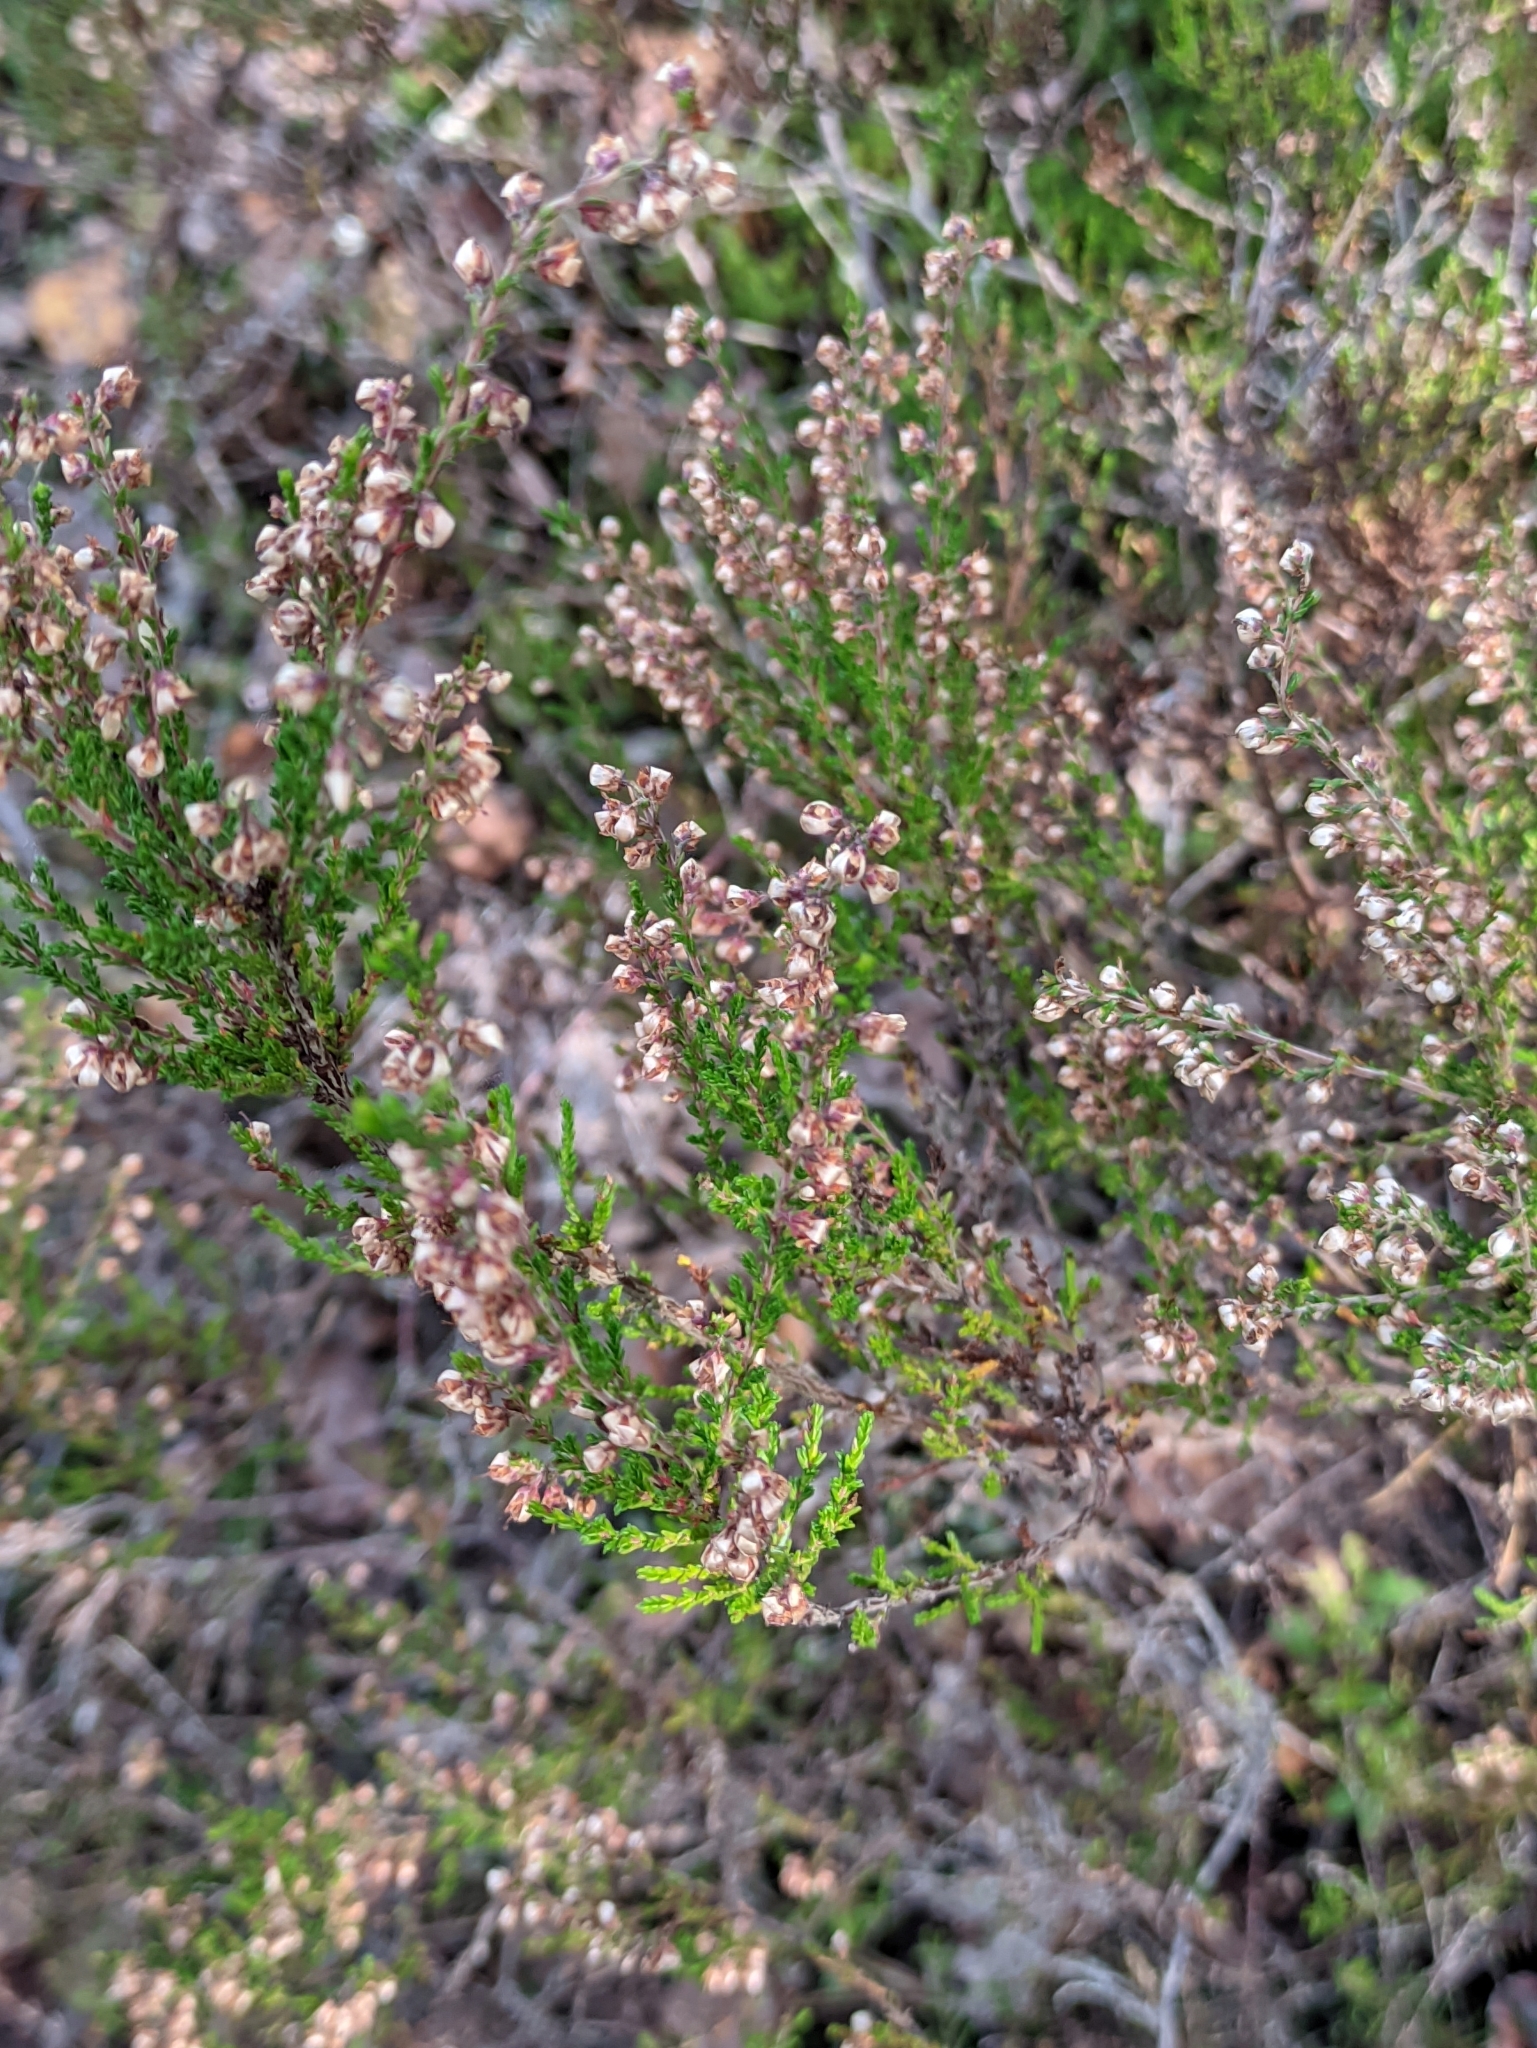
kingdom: Plantae
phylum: Tracheophyta
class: Magnoliopsida
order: Ericales
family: Ericaceae
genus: Calluna
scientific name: Calluna vulgaris
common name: Heather
